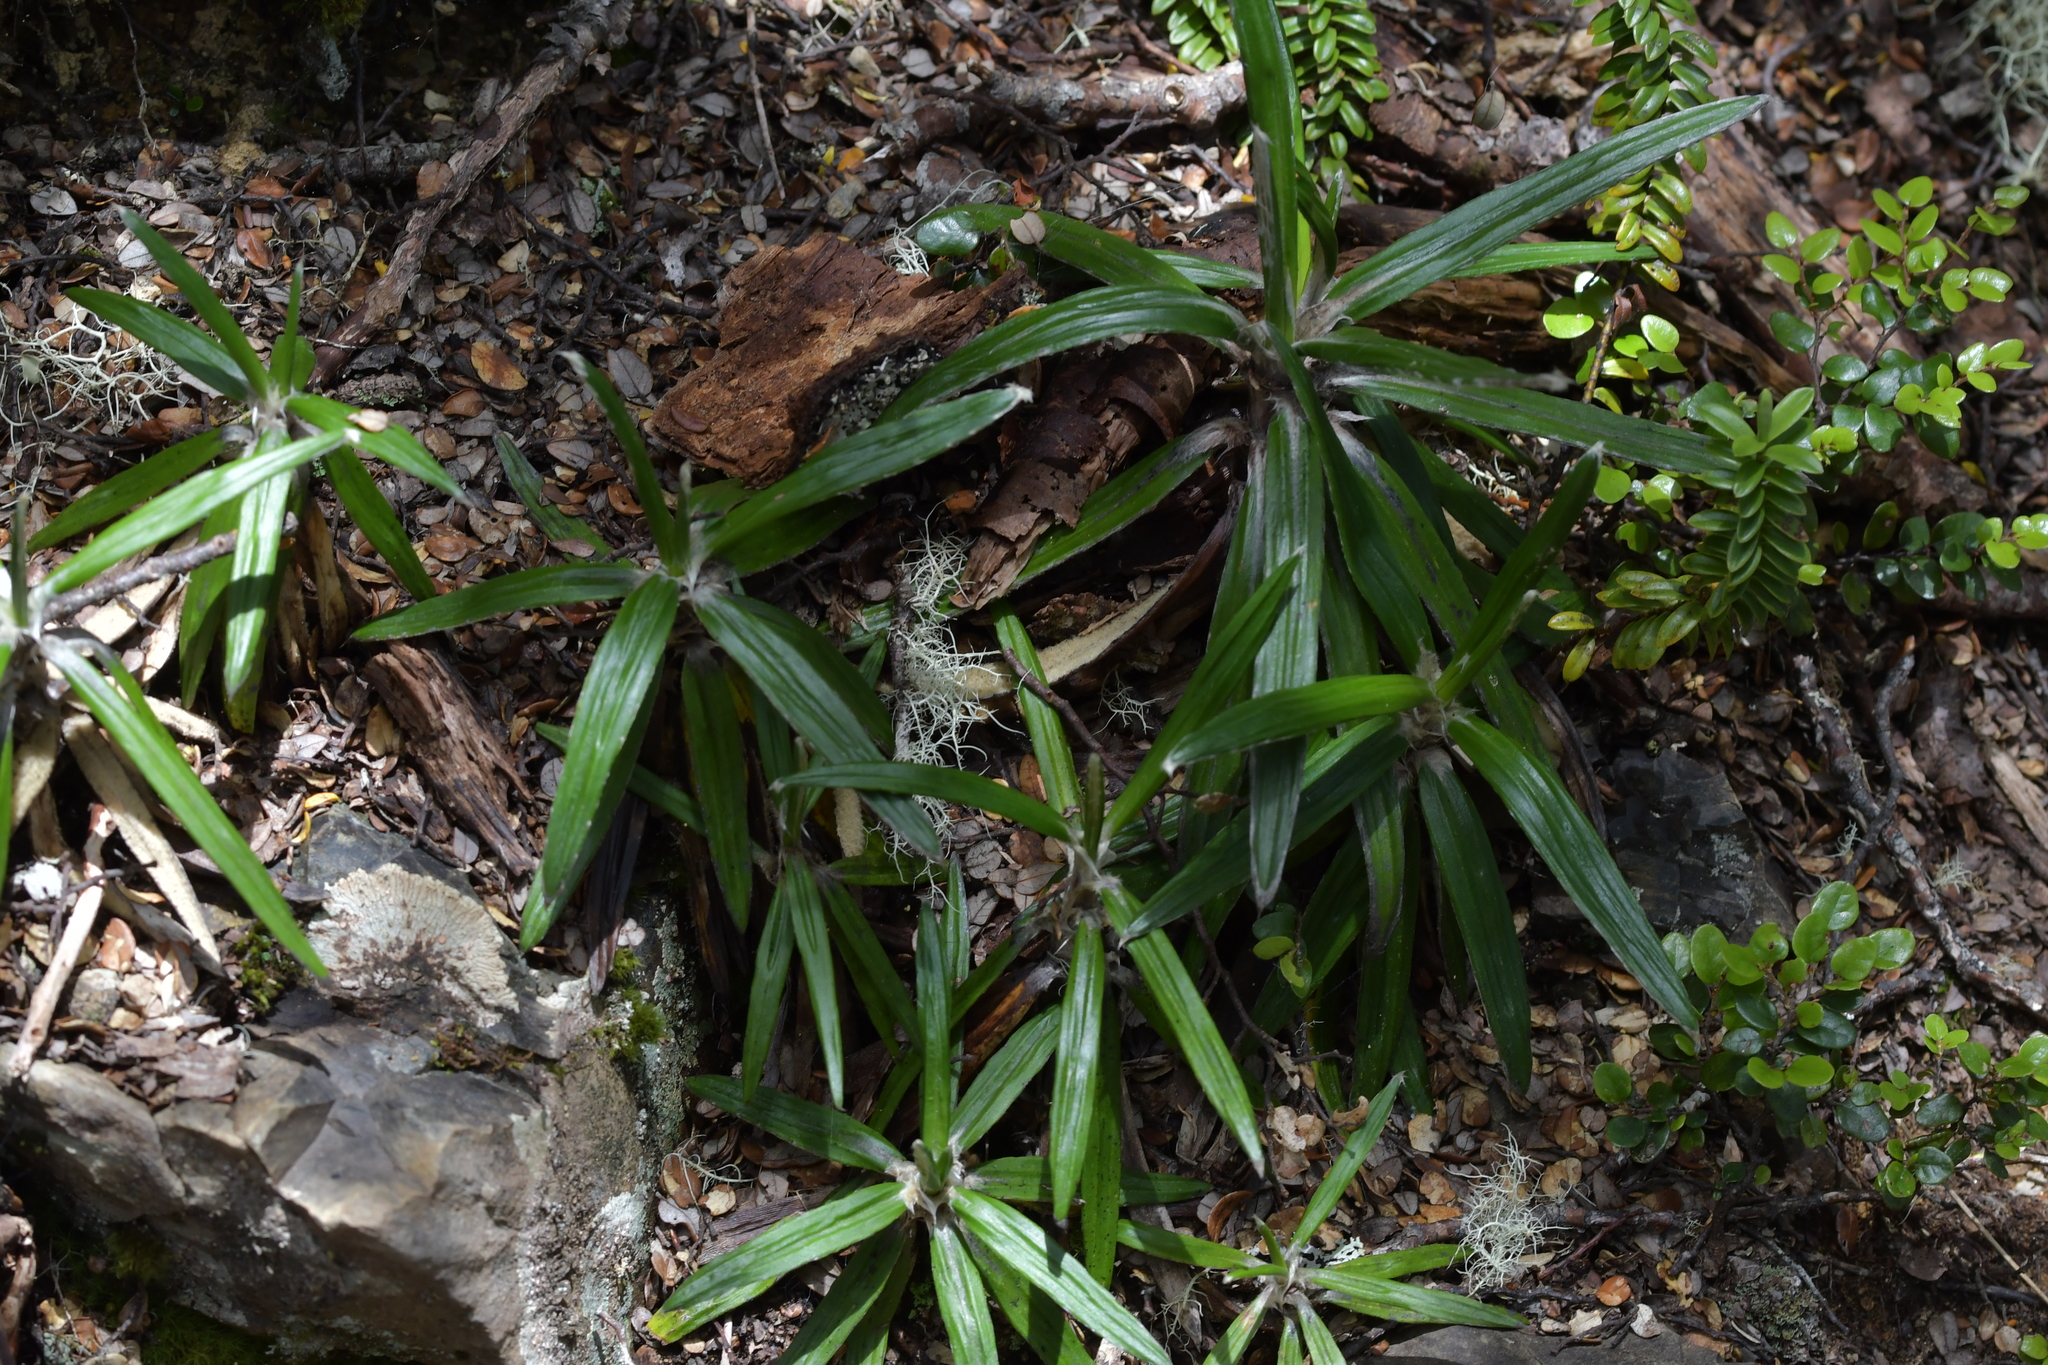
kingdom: Plantae
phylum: Tracheophyta
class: Magnoliopsida
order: Asterales
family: Asteraceae
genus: Celmisia
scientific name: Celmisia spectabilis
